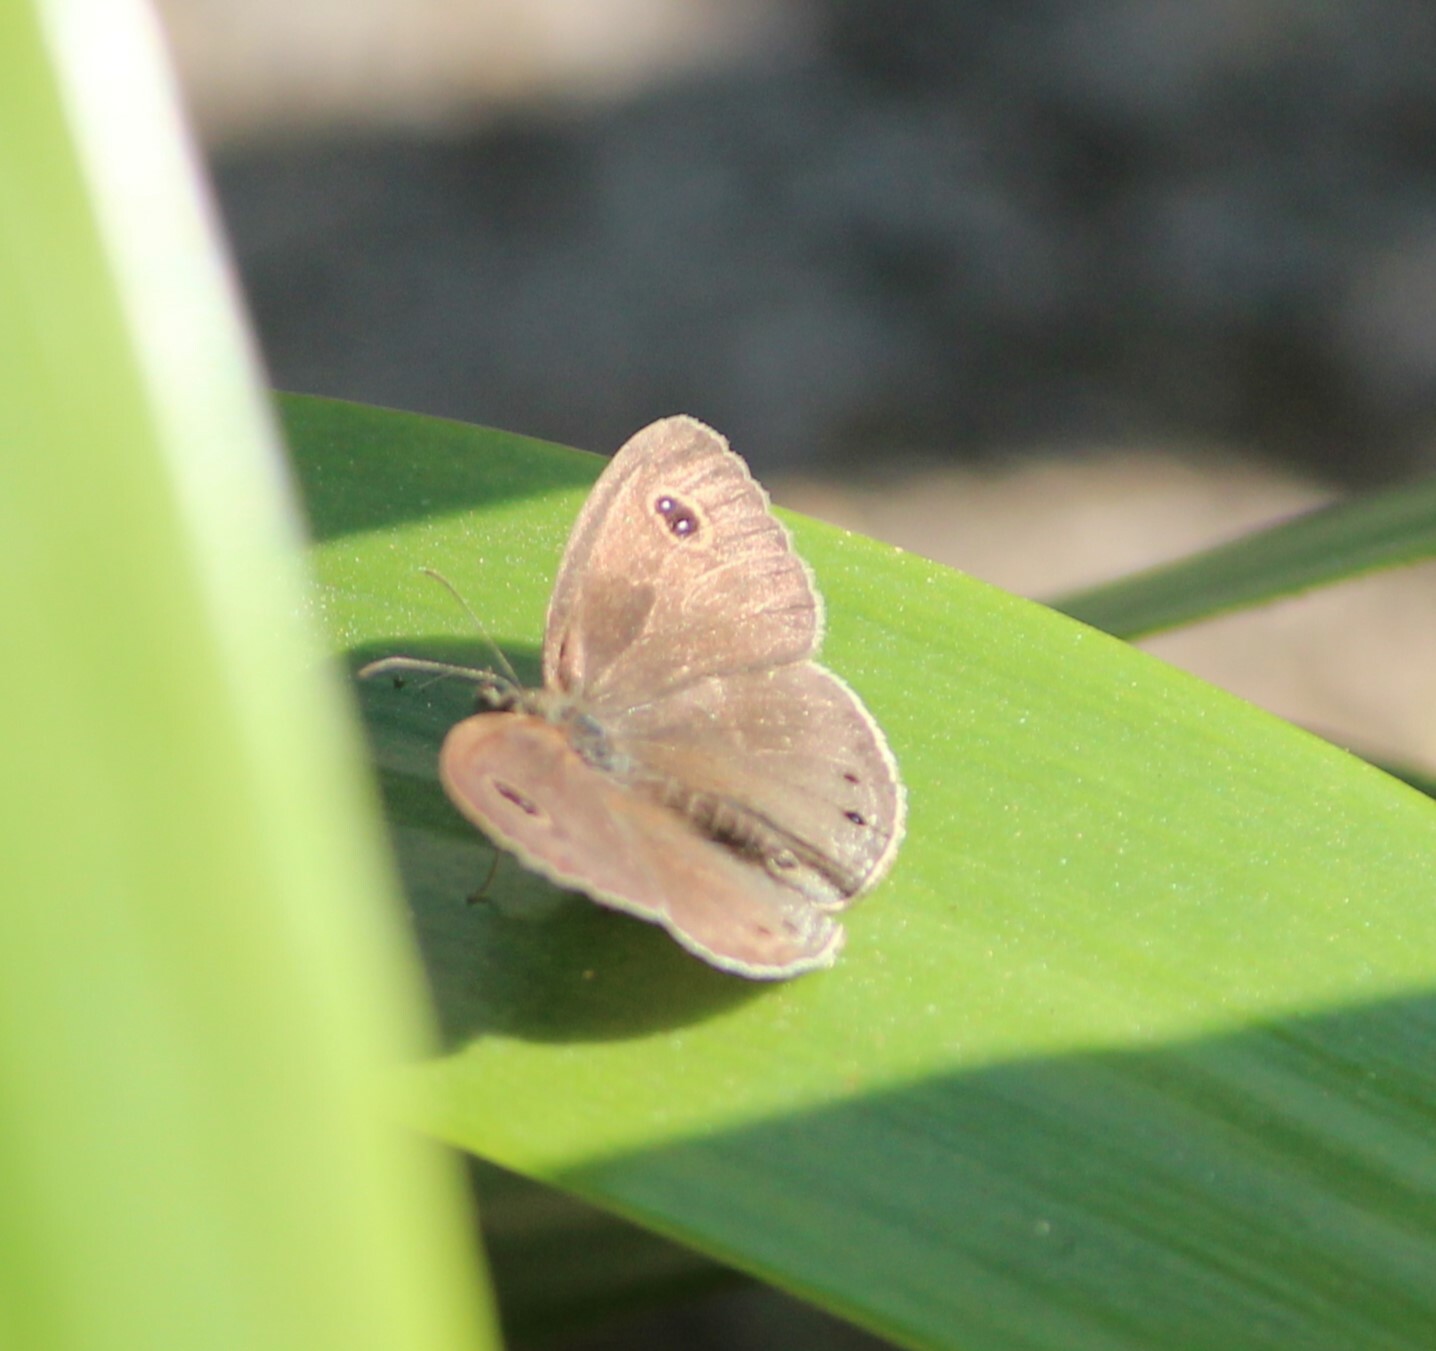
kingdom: Animalia
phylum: Arthropoda
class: Insecta
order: Lepidoptera
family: Nymphalidae
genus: Ypthima
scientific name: Ypthima huebneri
